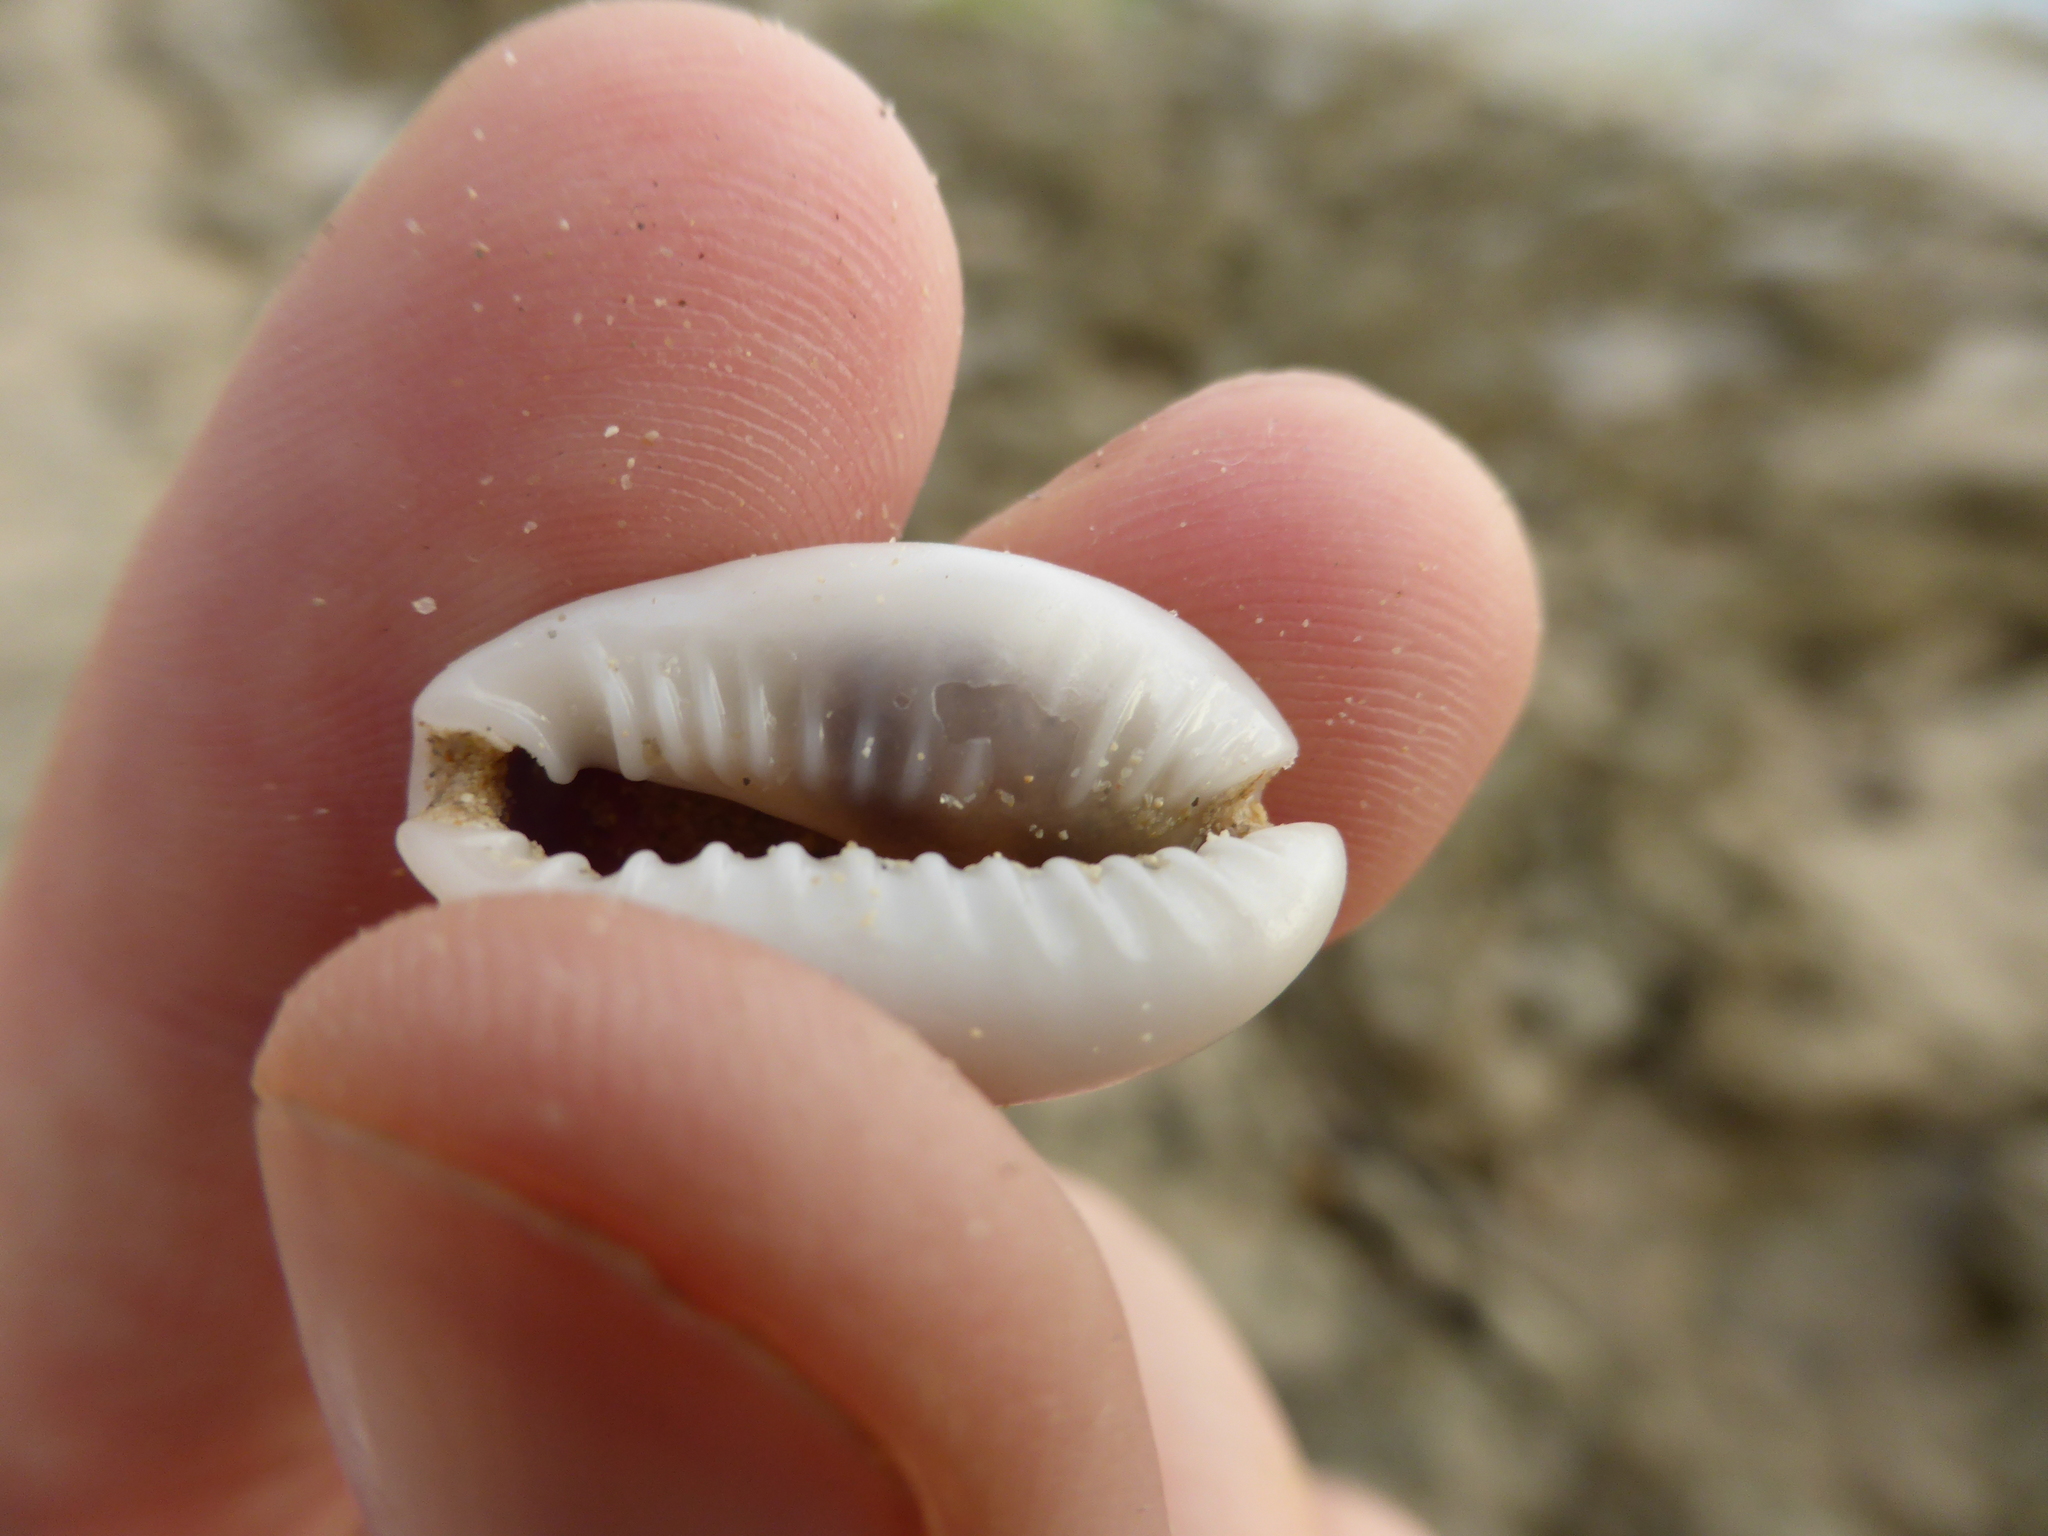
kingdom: Animalia
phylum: Mollusca
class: Gastropoda
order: Littorinimorpha
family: Cypraeidae
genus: Monetaria
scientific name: Monetaria annulus
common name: Ring cowrie
